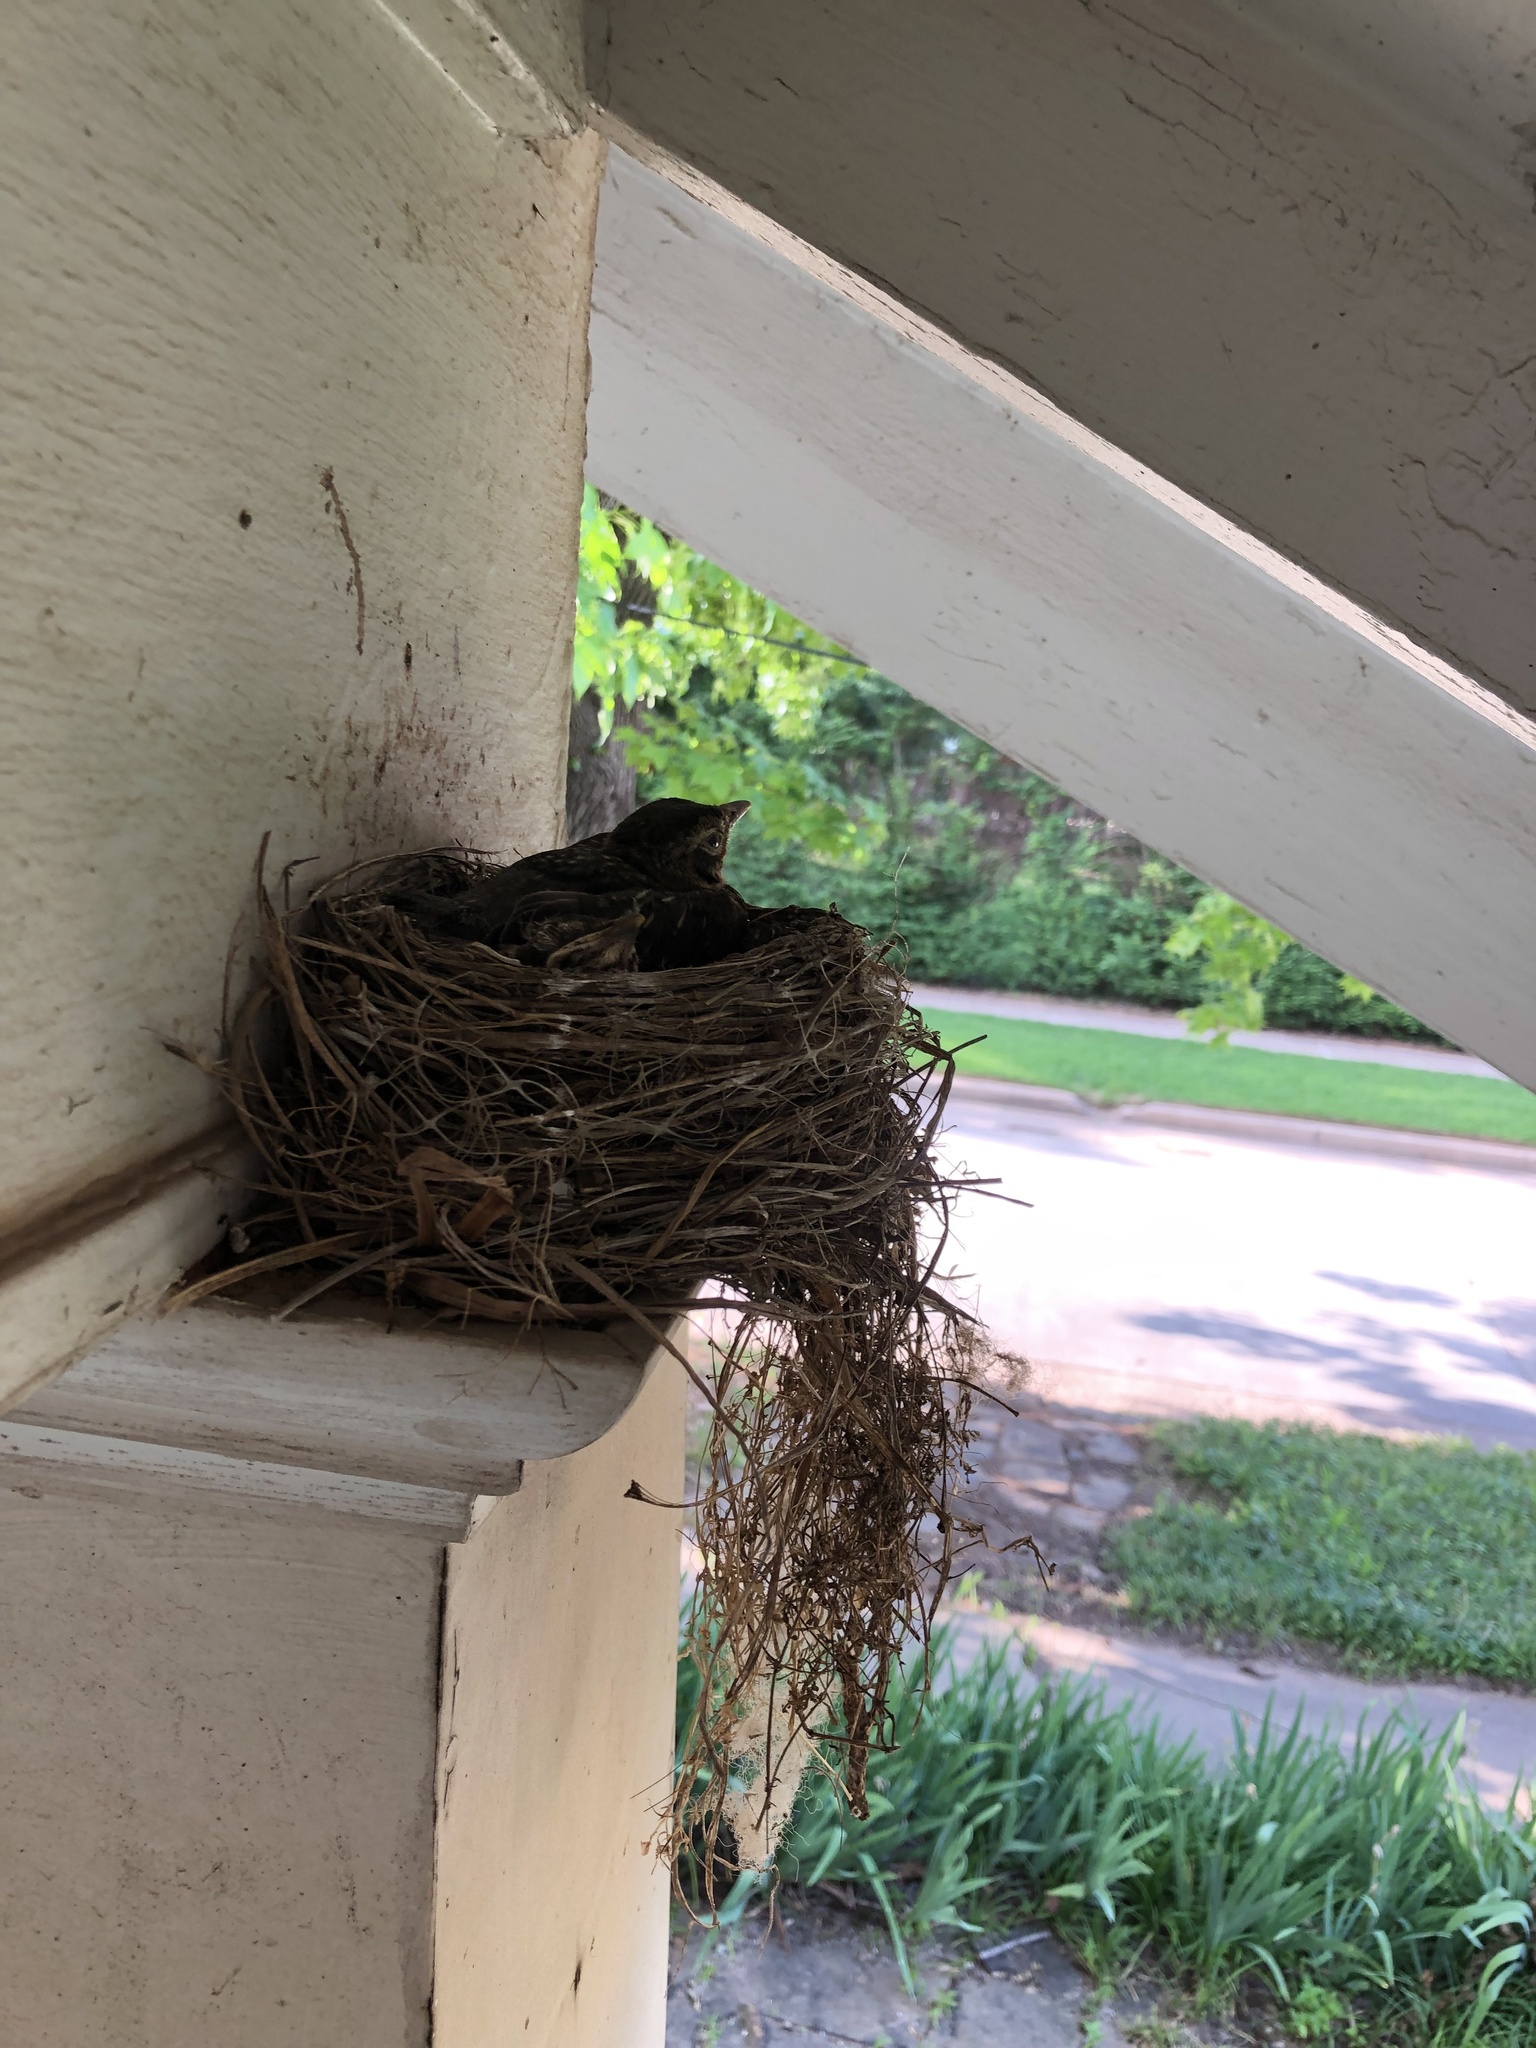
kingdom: Animalia
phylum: Chordata
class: Aves
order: Passeriformes
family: Turdidae
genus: Turdus
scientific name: Turdus migratorius
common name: American robin
